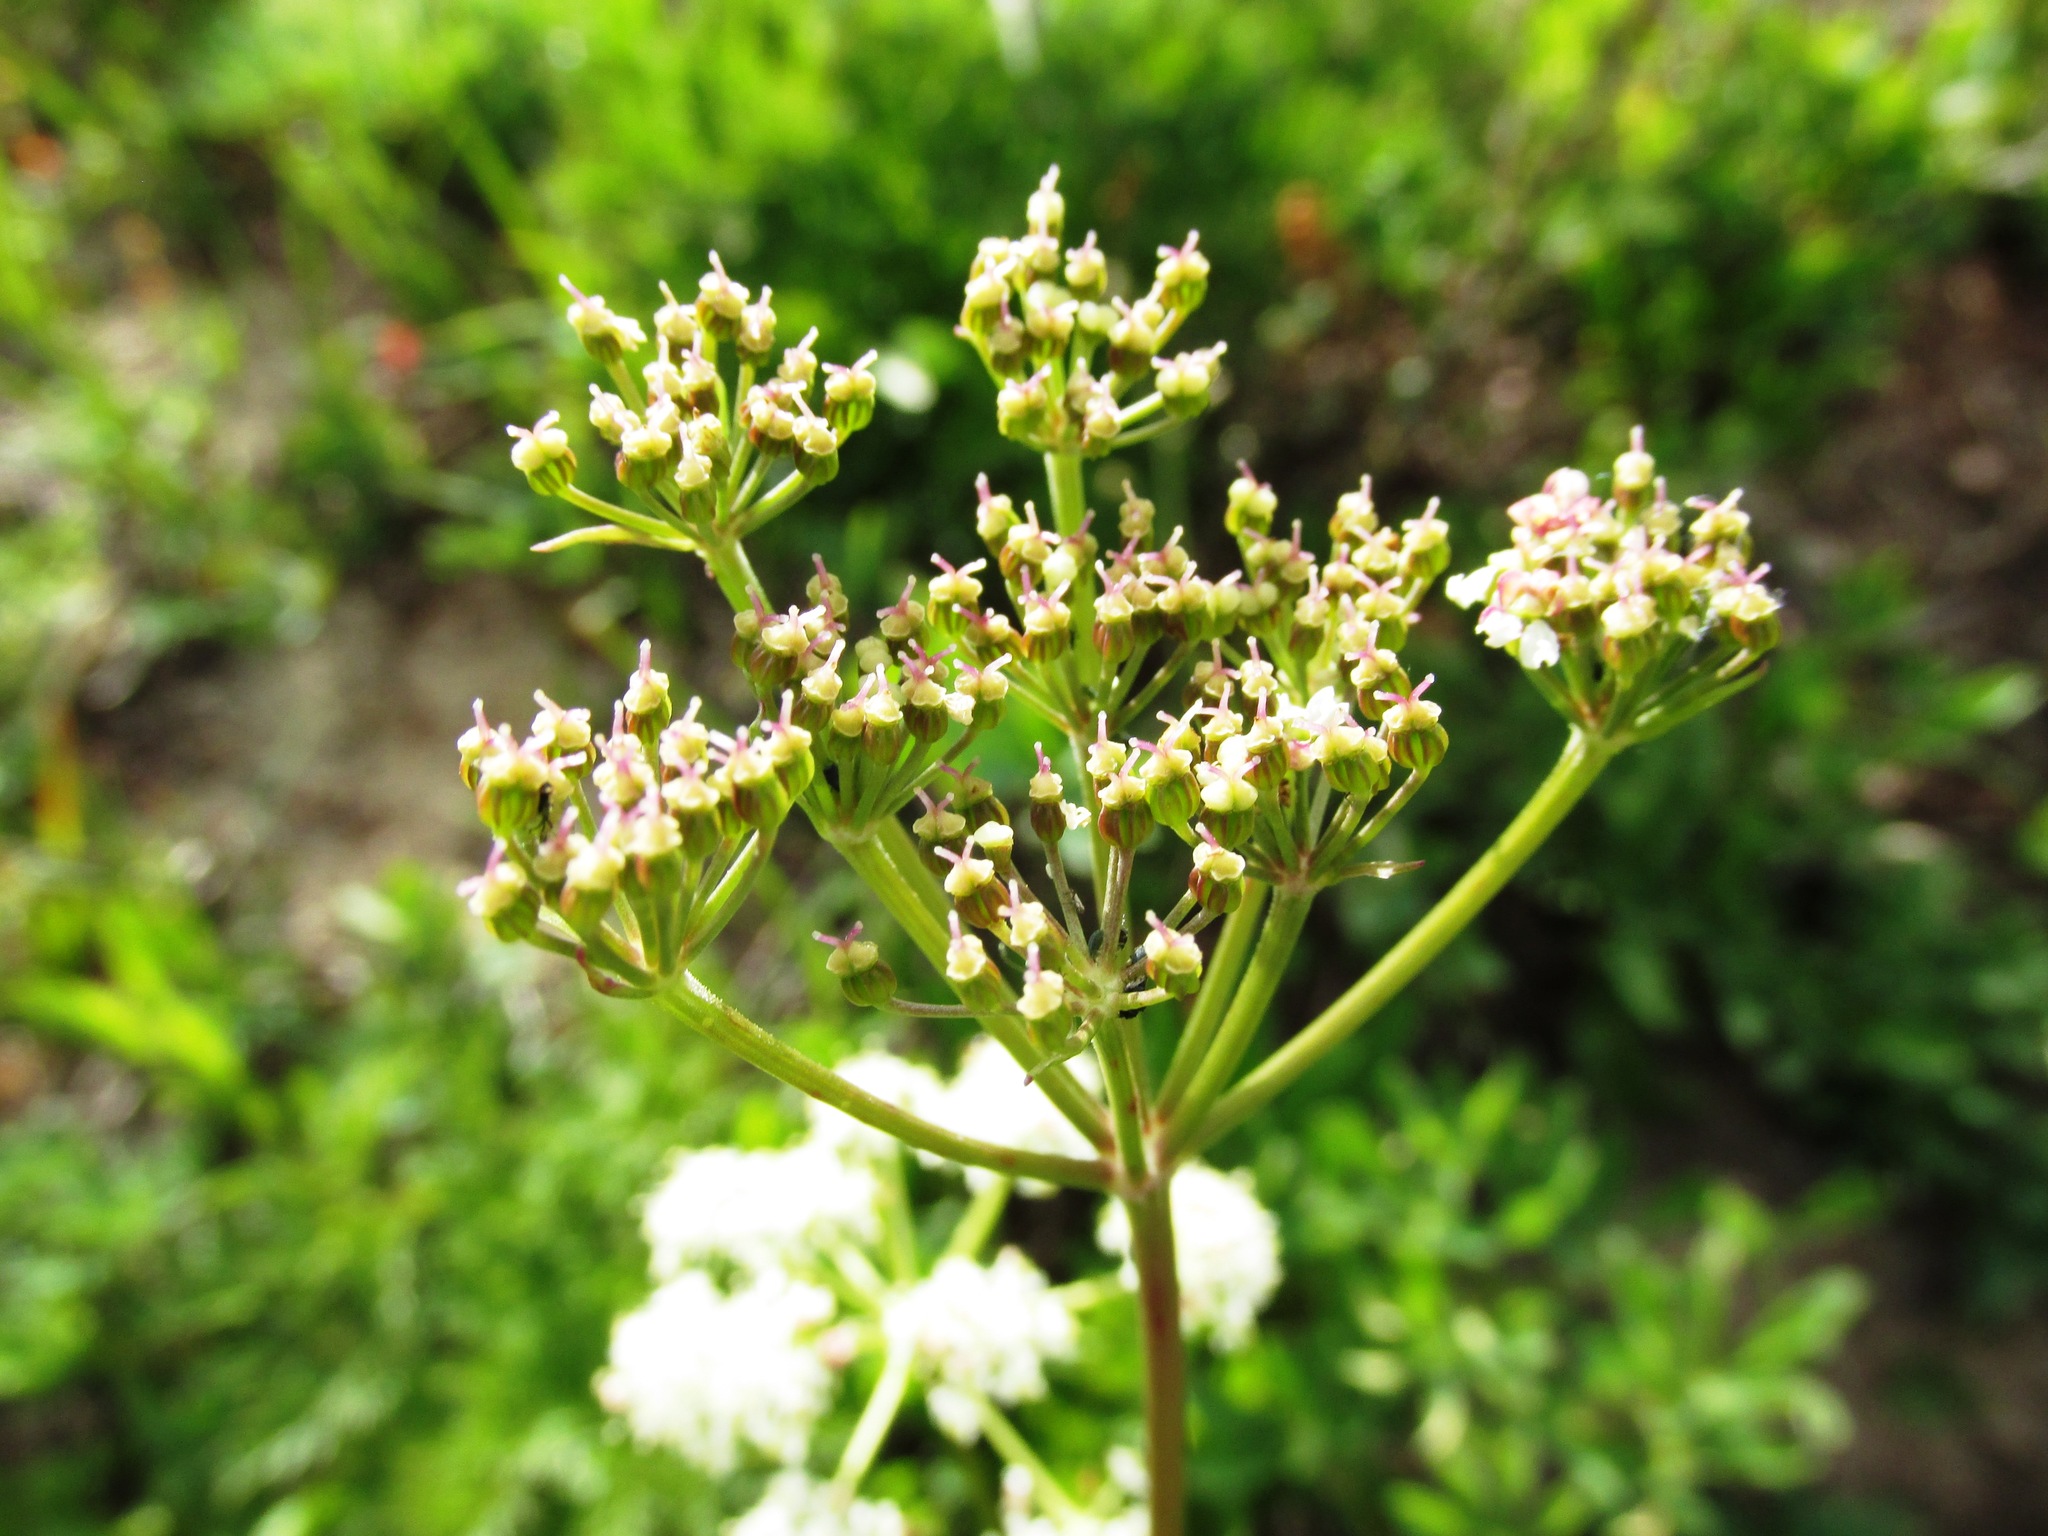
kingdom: Plantae
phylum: Tracheophyta
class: Magnoliopsida
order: Apiales
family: Apiaceae
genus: Ligusticum
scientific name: Ligusticum grayi
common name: Gray's licorice-root
